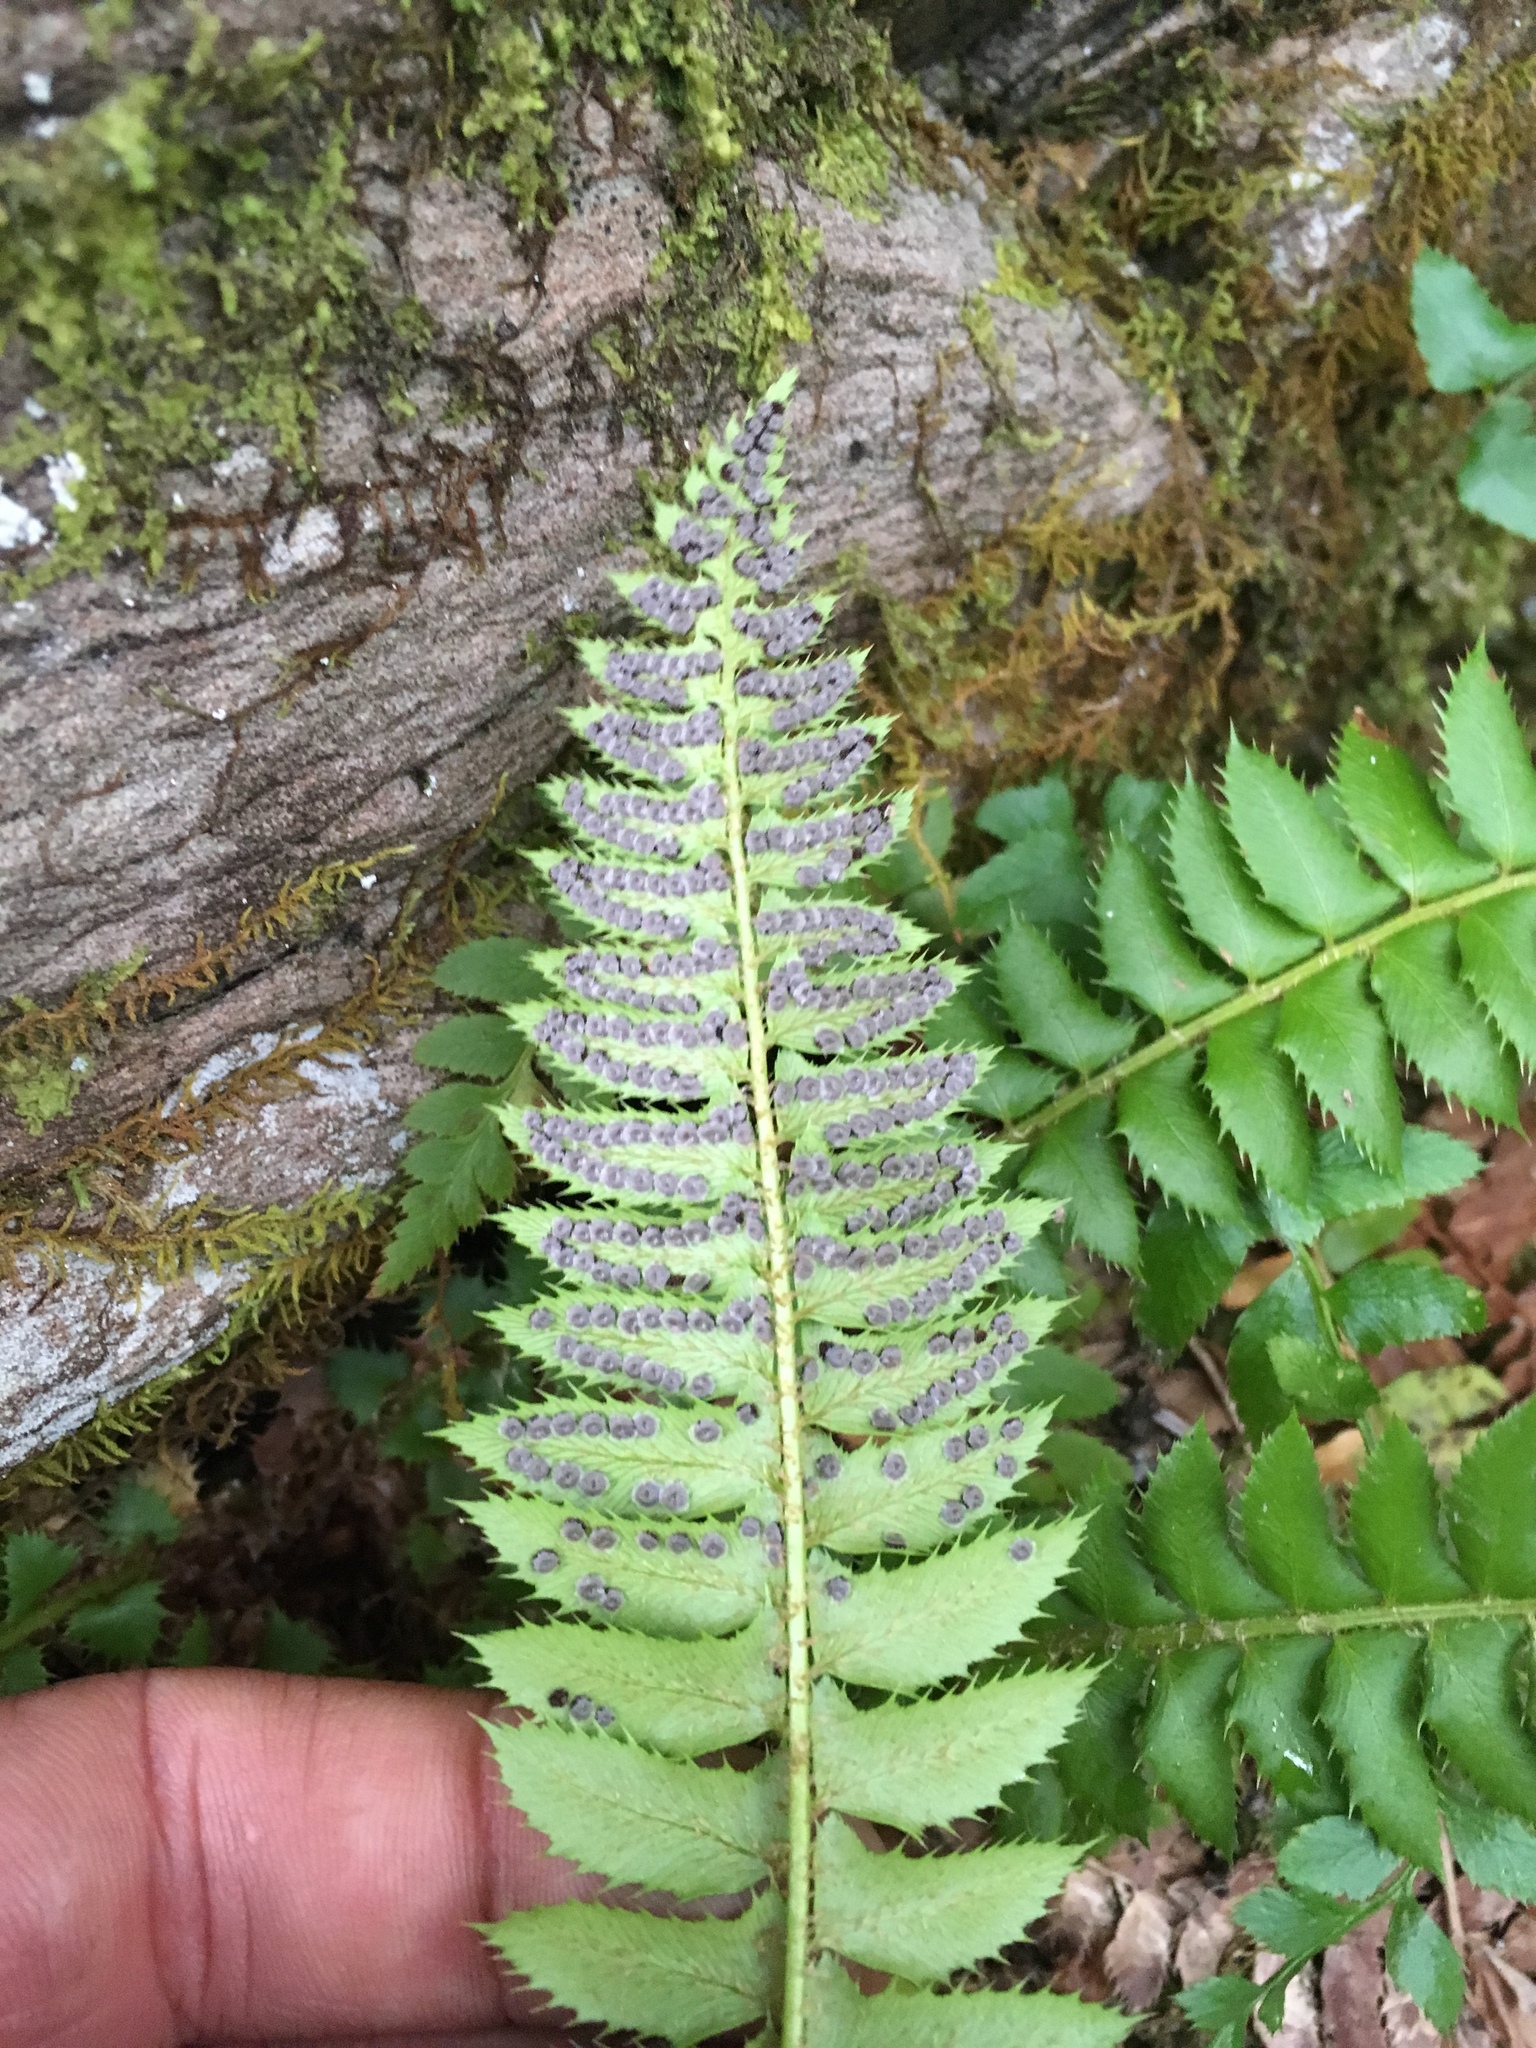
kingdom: Plantae
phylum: Tracheophyta
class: Polypodiopsida
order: Polypodiales
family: Dryopteridaceae
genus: Polystichum
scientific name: Polystichum lonchitis
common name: Holly fern
